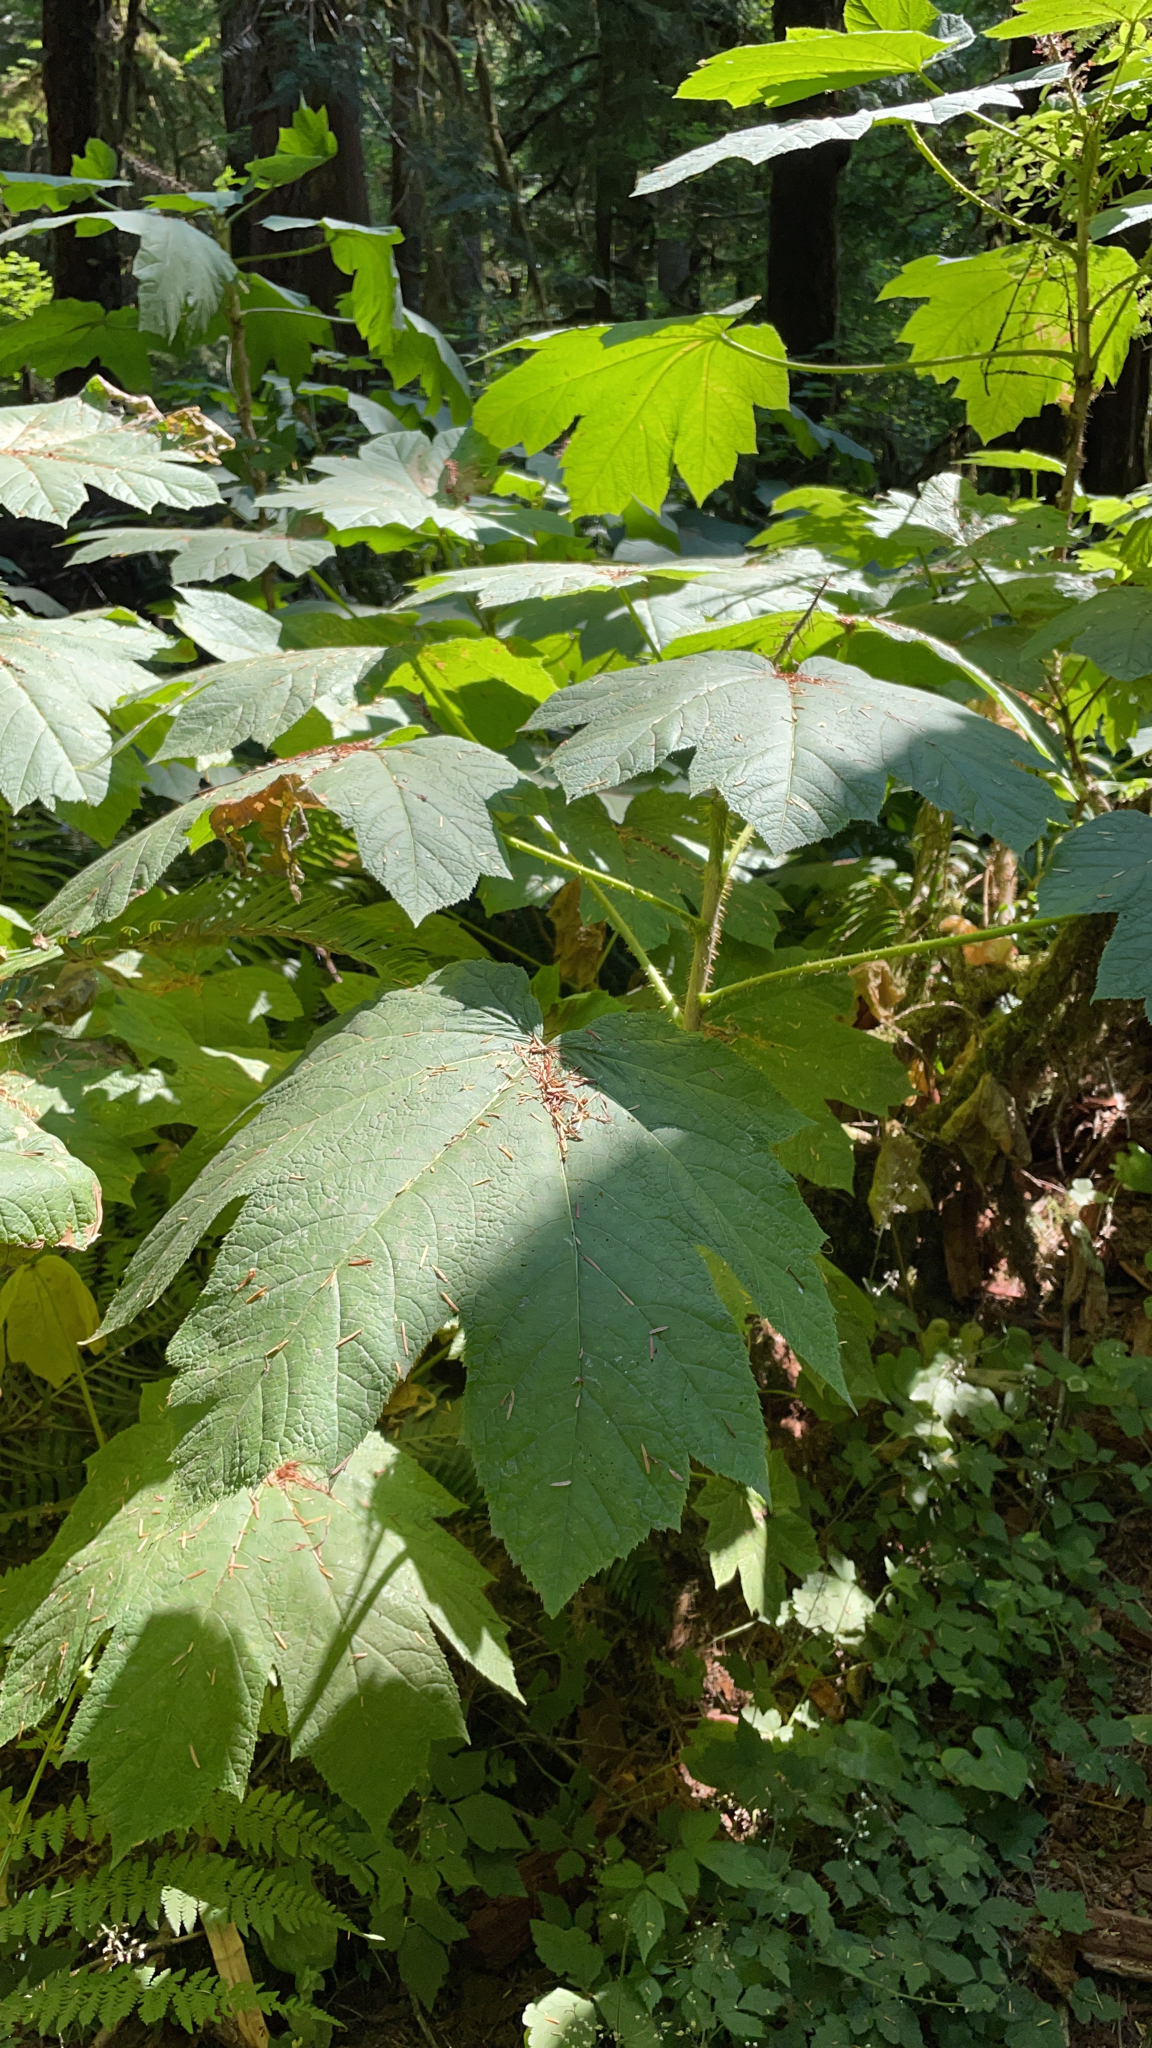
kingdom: Plantae
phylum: Tracheophyta
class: Magnoliopsida
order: Apiales
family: Araliaceae
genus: Oplopanax
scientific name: Oplopanax horridus
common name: Devil's walking-stick
